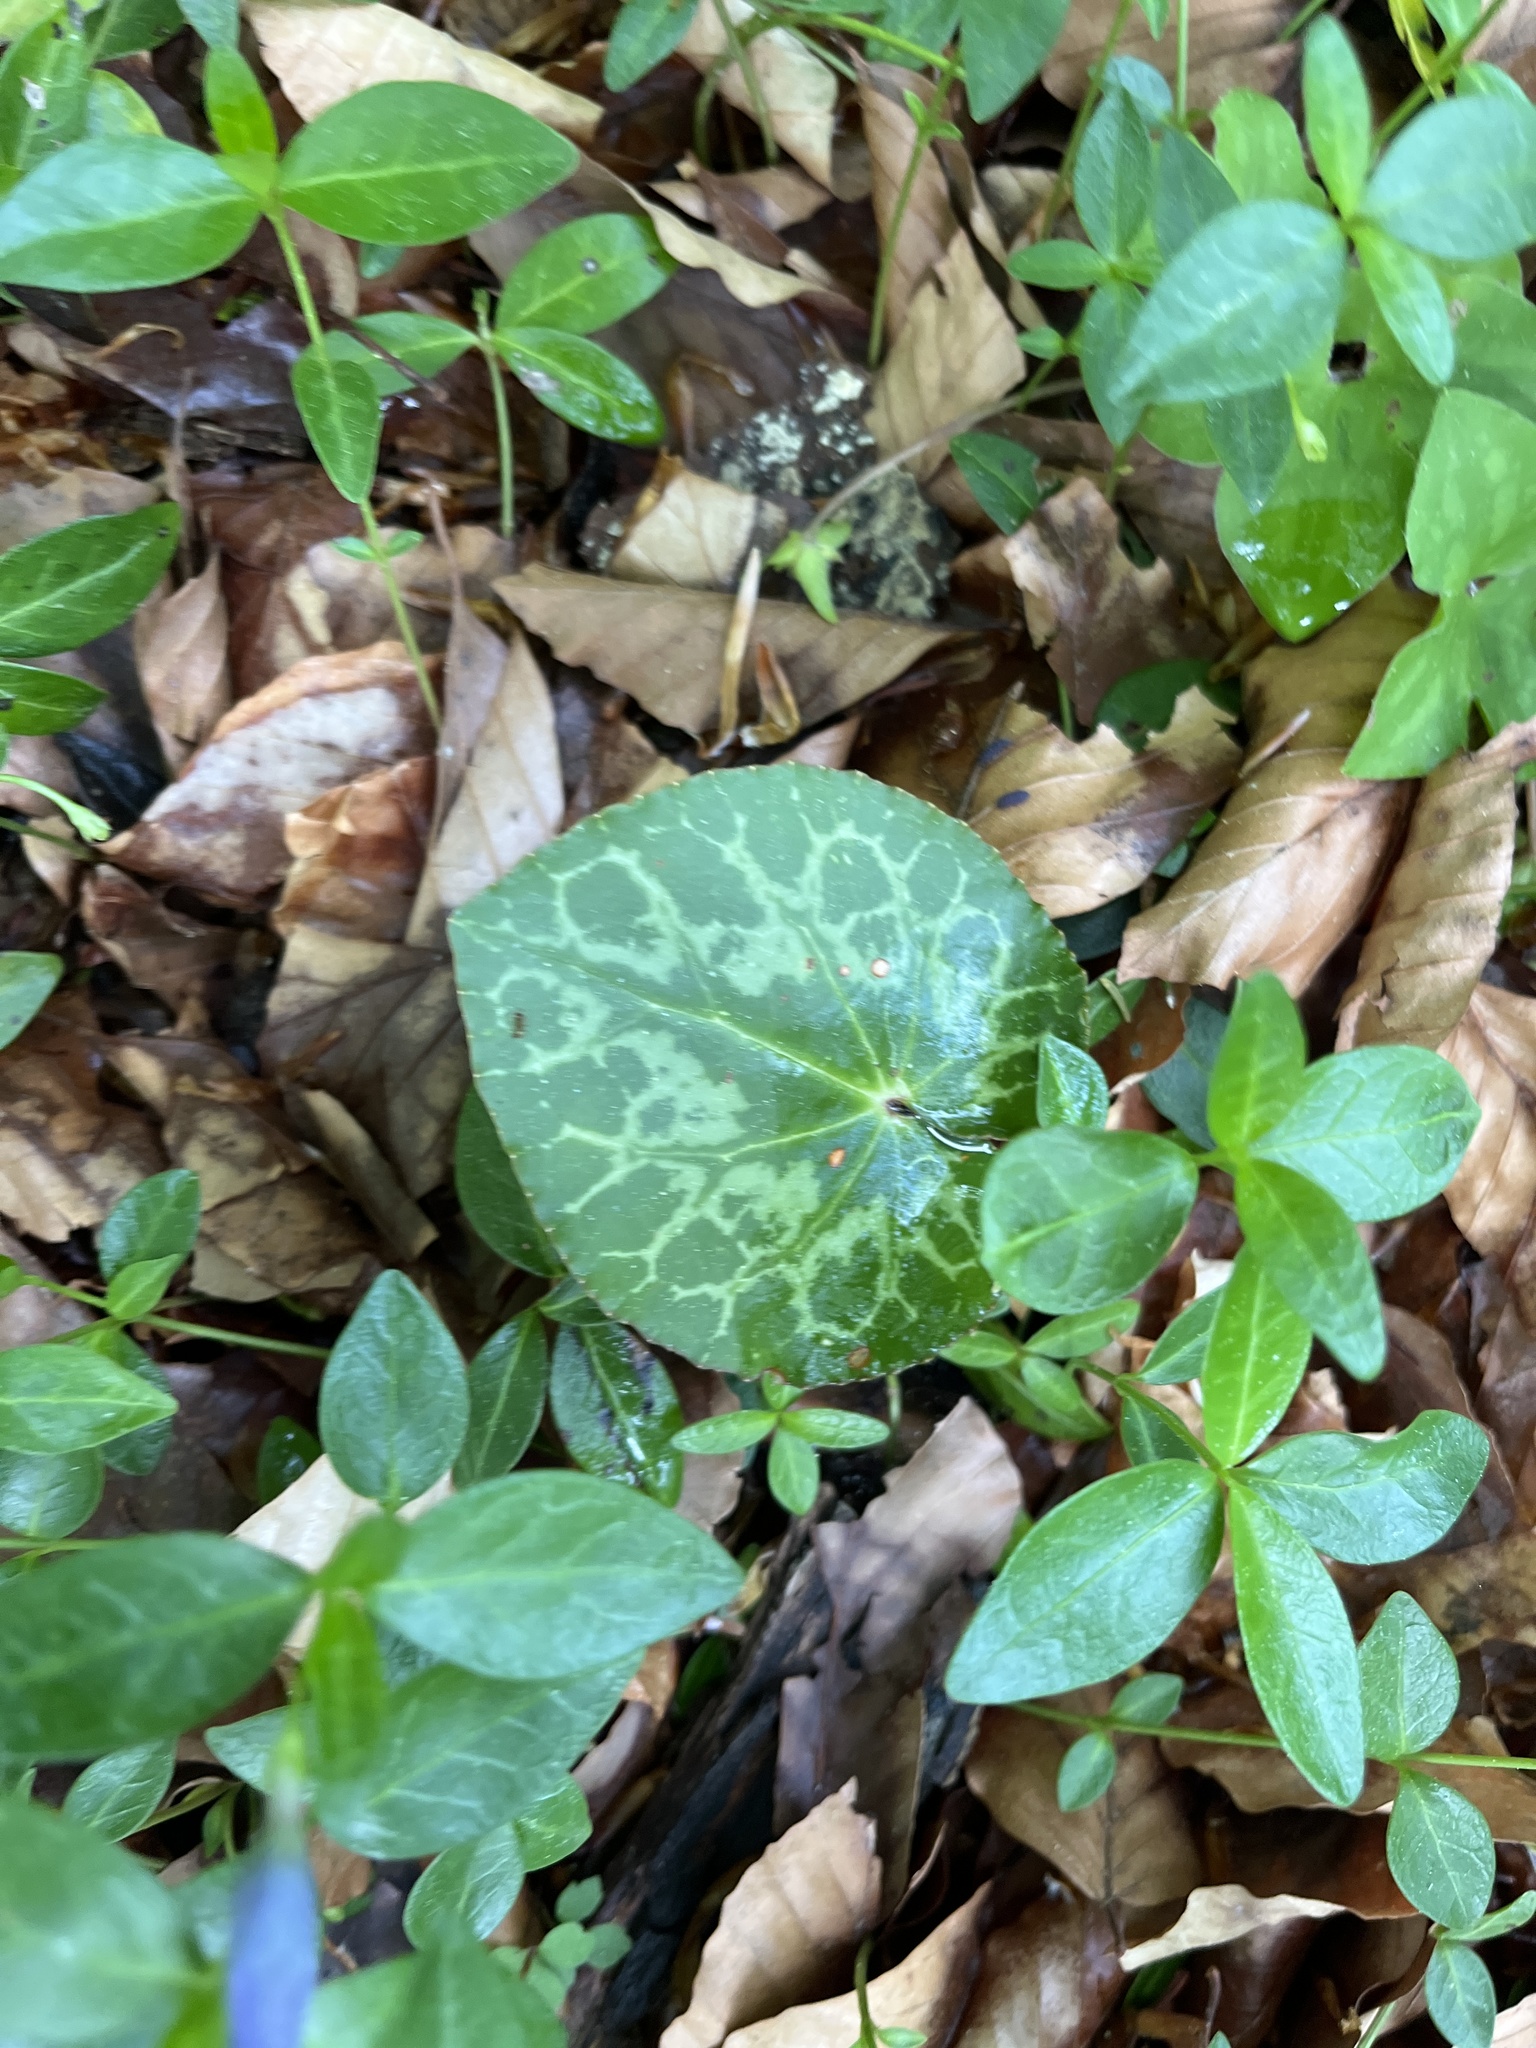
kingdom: Plantae
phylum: Tracheophyta
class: Magnoliopsida
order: Ericales
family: Primulaceae
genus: Cyclamen
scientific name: Cyclamen purpurascens
